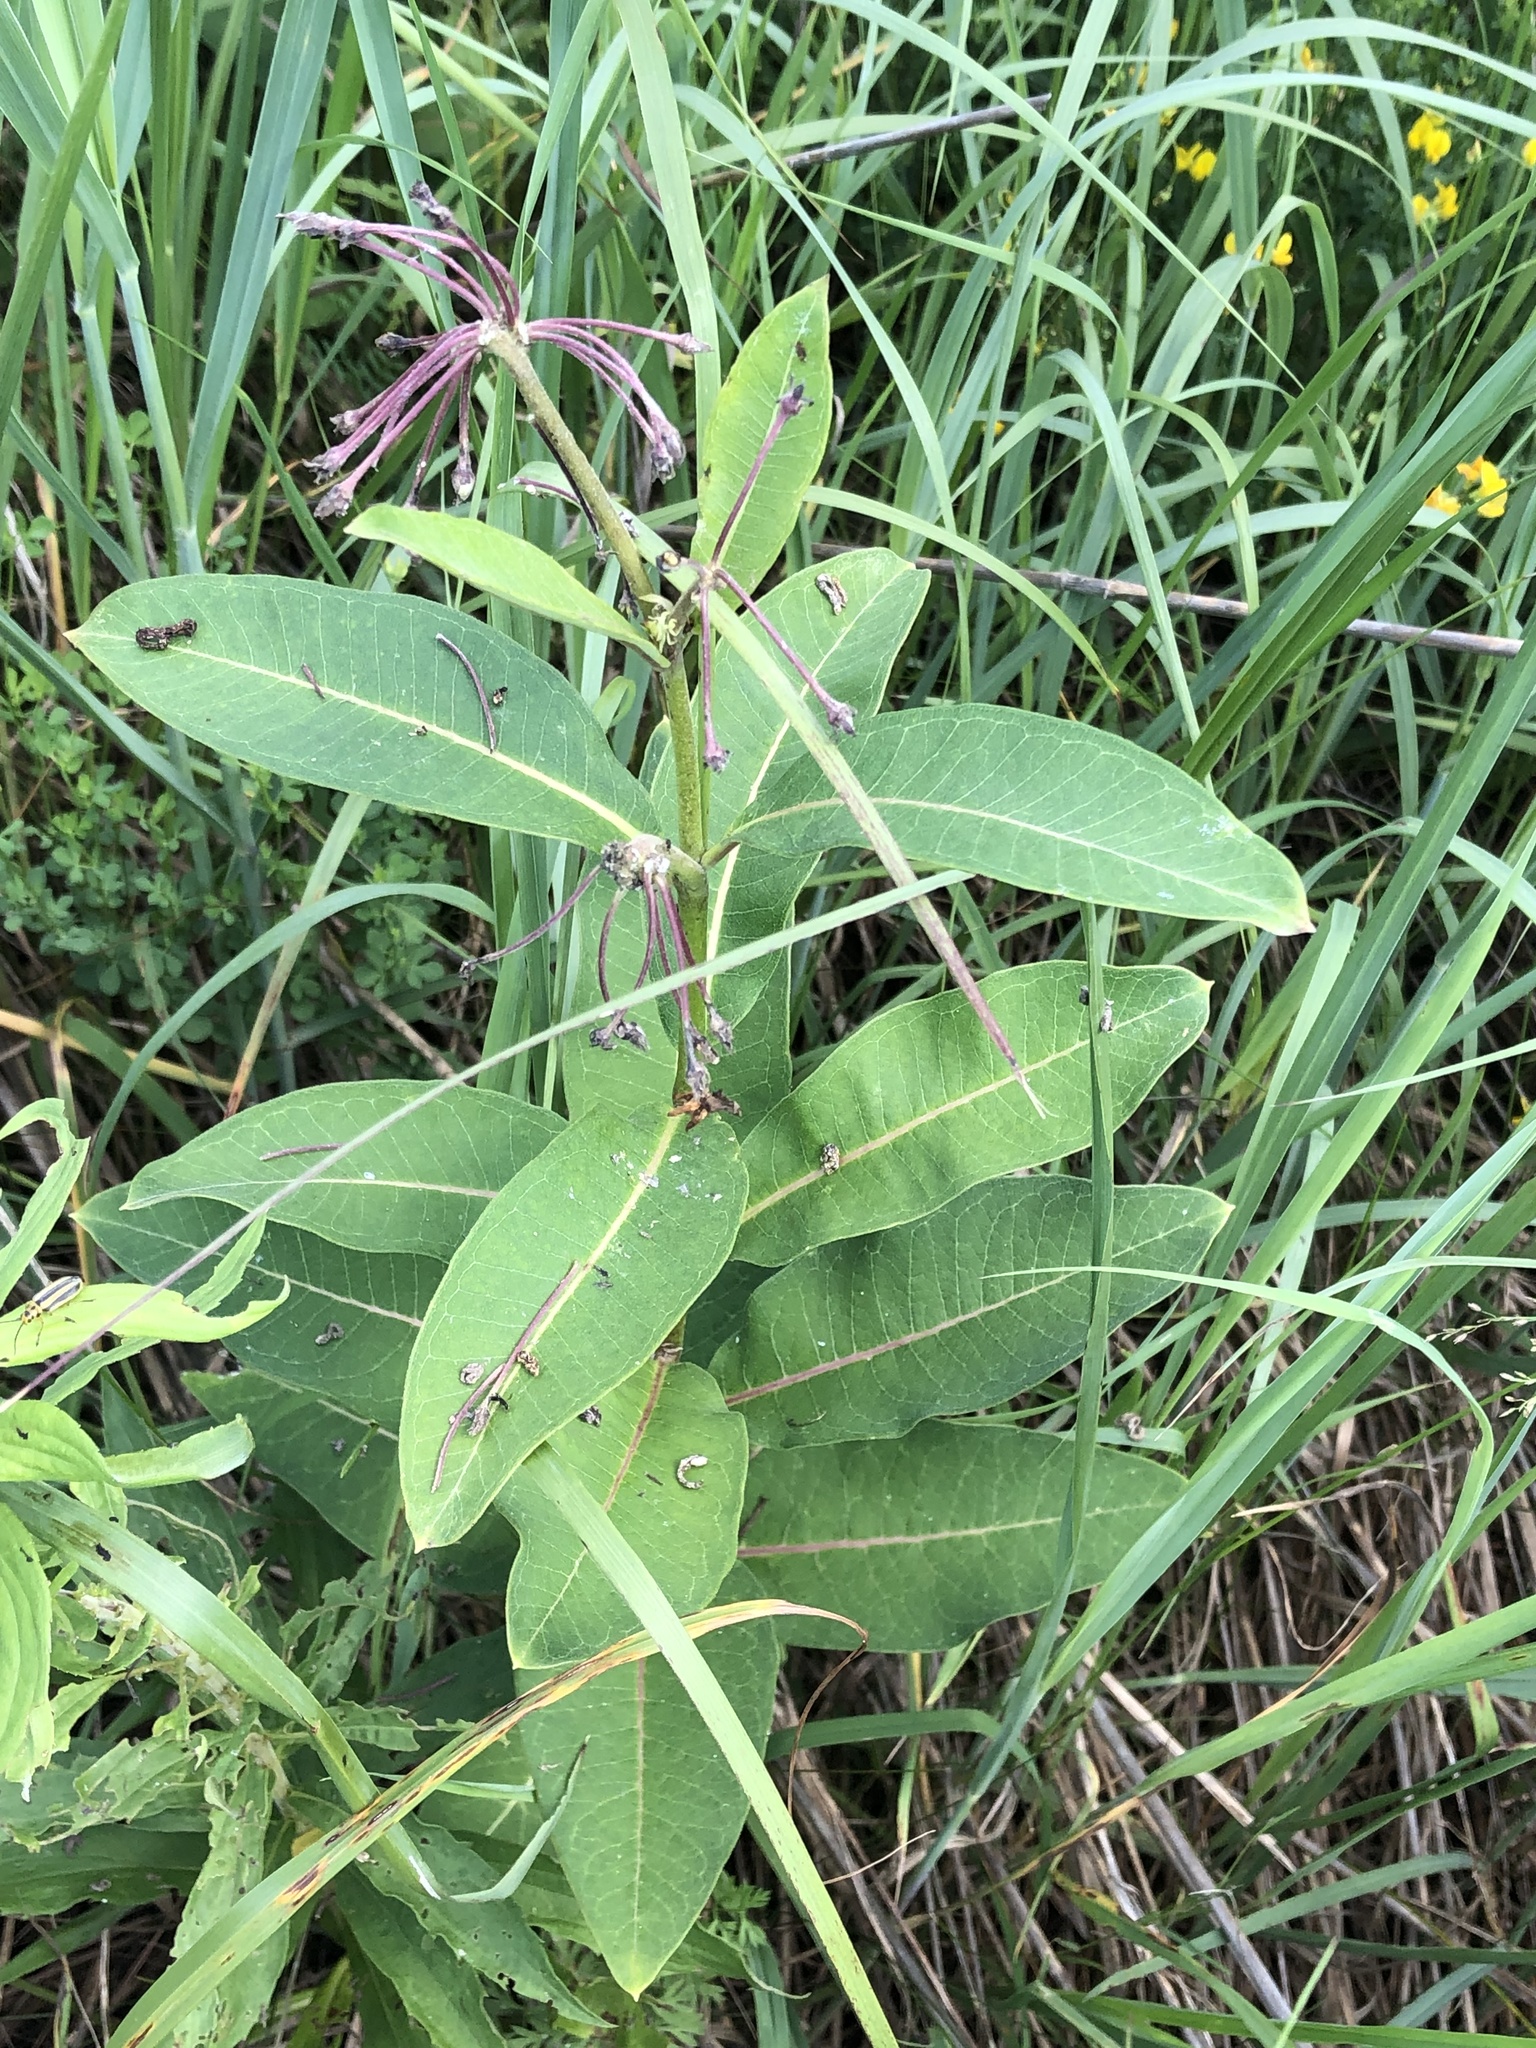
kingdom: Plantae
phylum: Tracheophyta
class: Magnoliopsida
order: Gentianales
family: Apocynaceae
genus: Asclepias
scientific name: Asclepias syriaca
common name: Common milkweed
